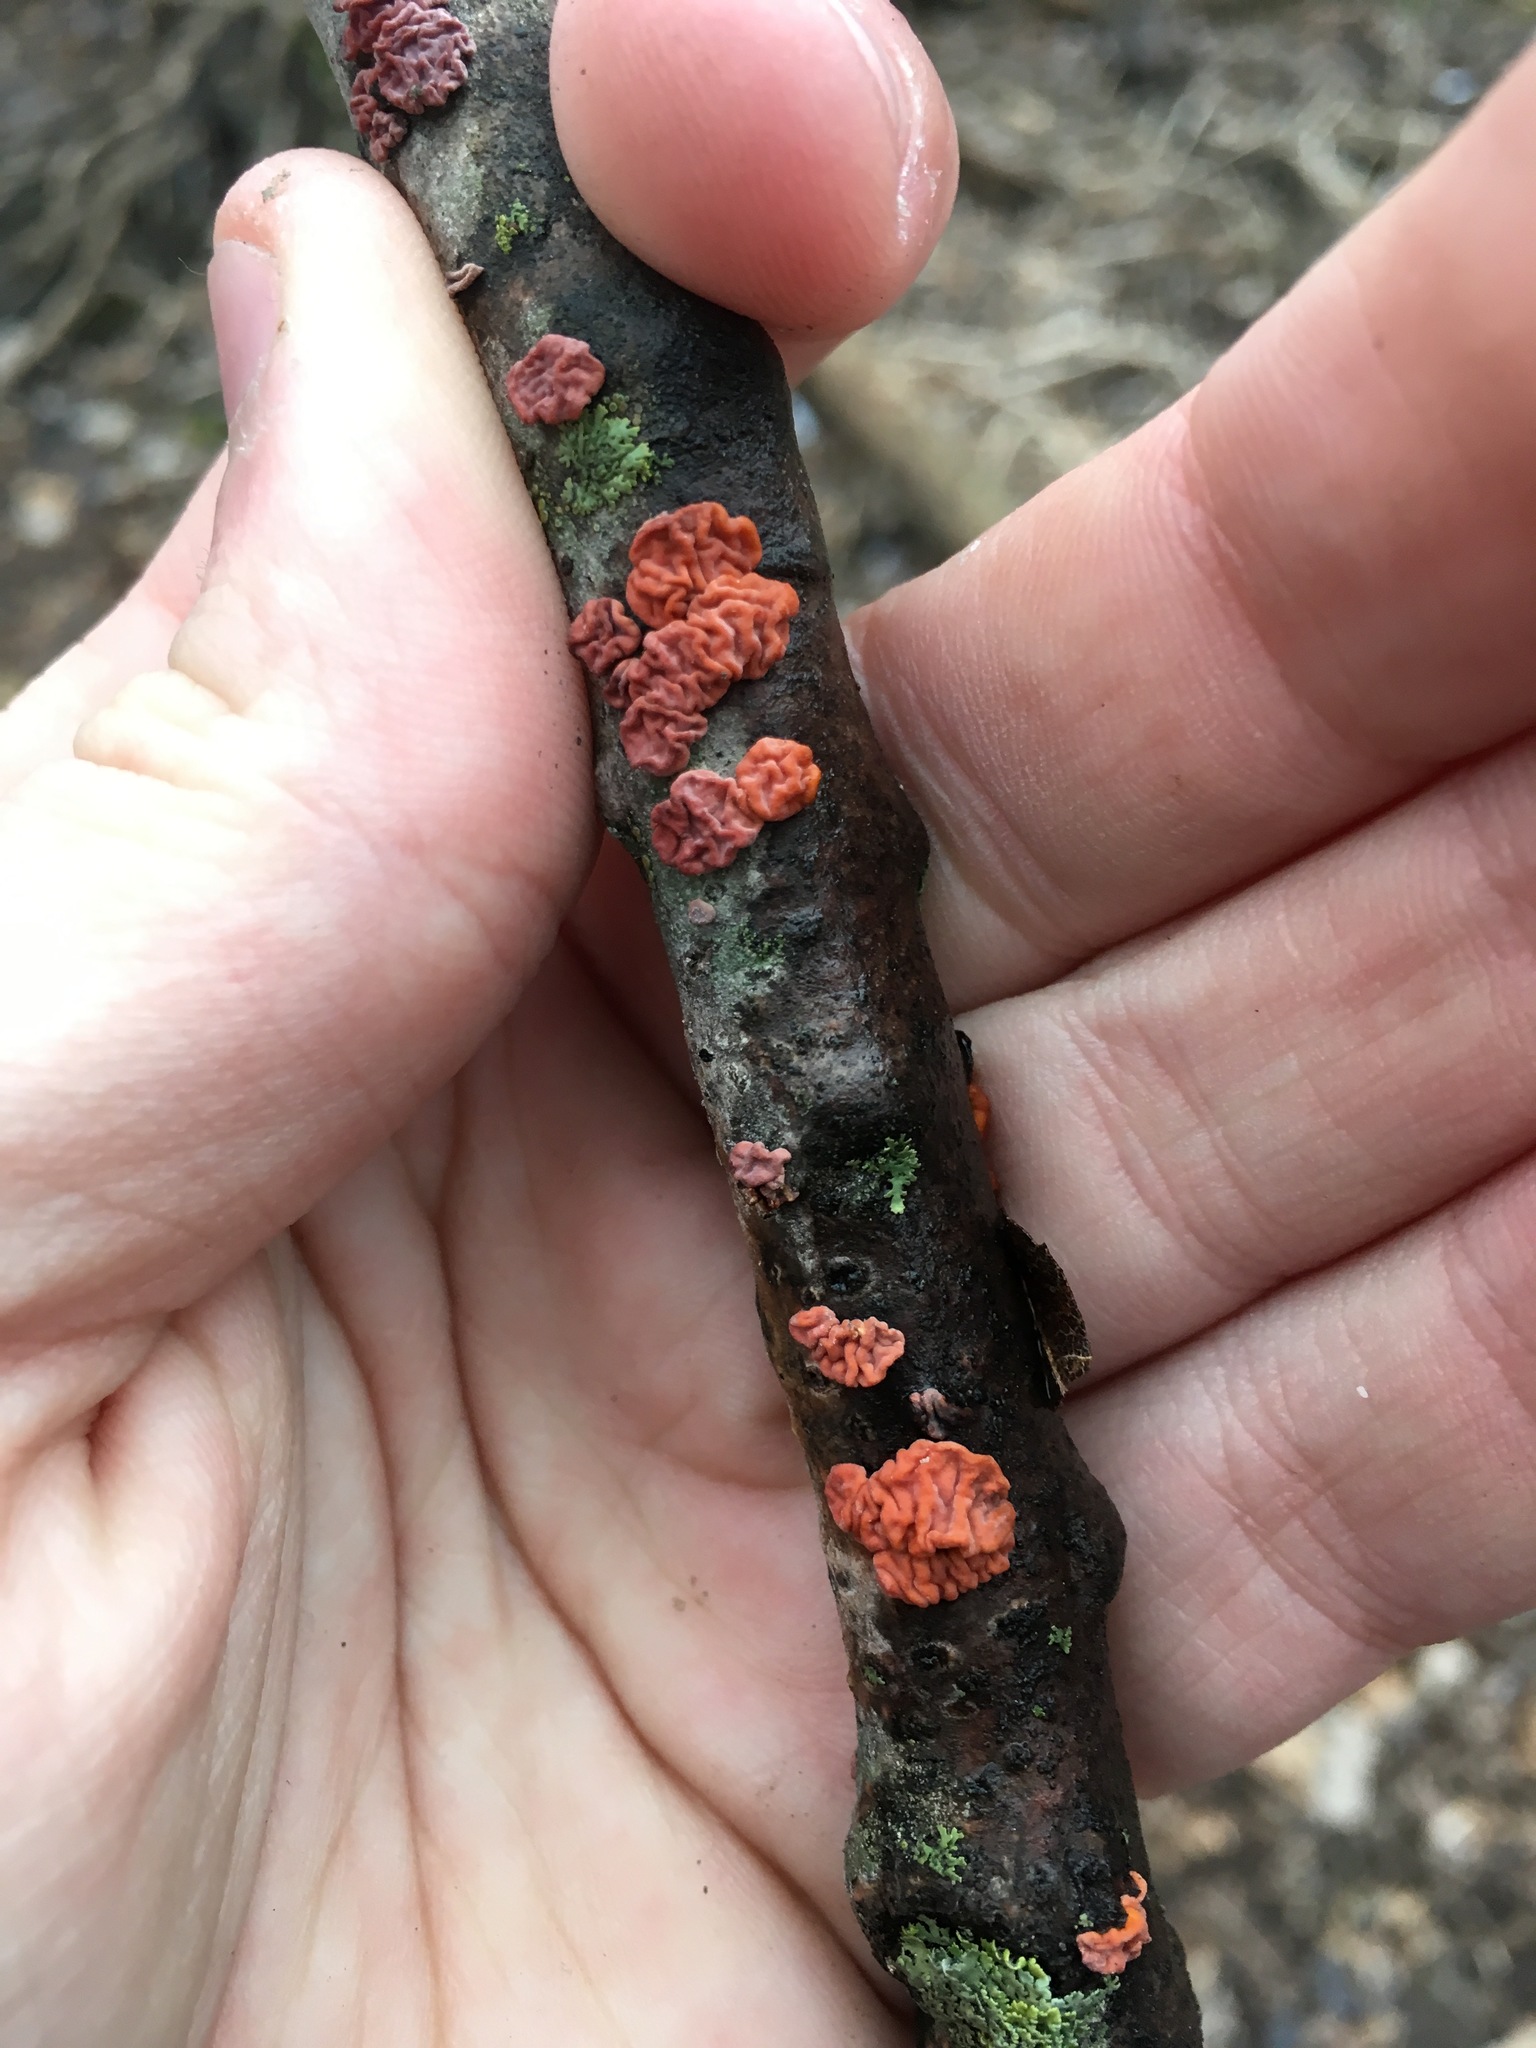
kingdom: Fungi
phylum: Basidiomycota
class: Agaricomycetes
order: Russulales
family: Peniophoraceae
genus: Peniophora
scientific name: Peniophora rufa
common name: Red tree brain fungus
